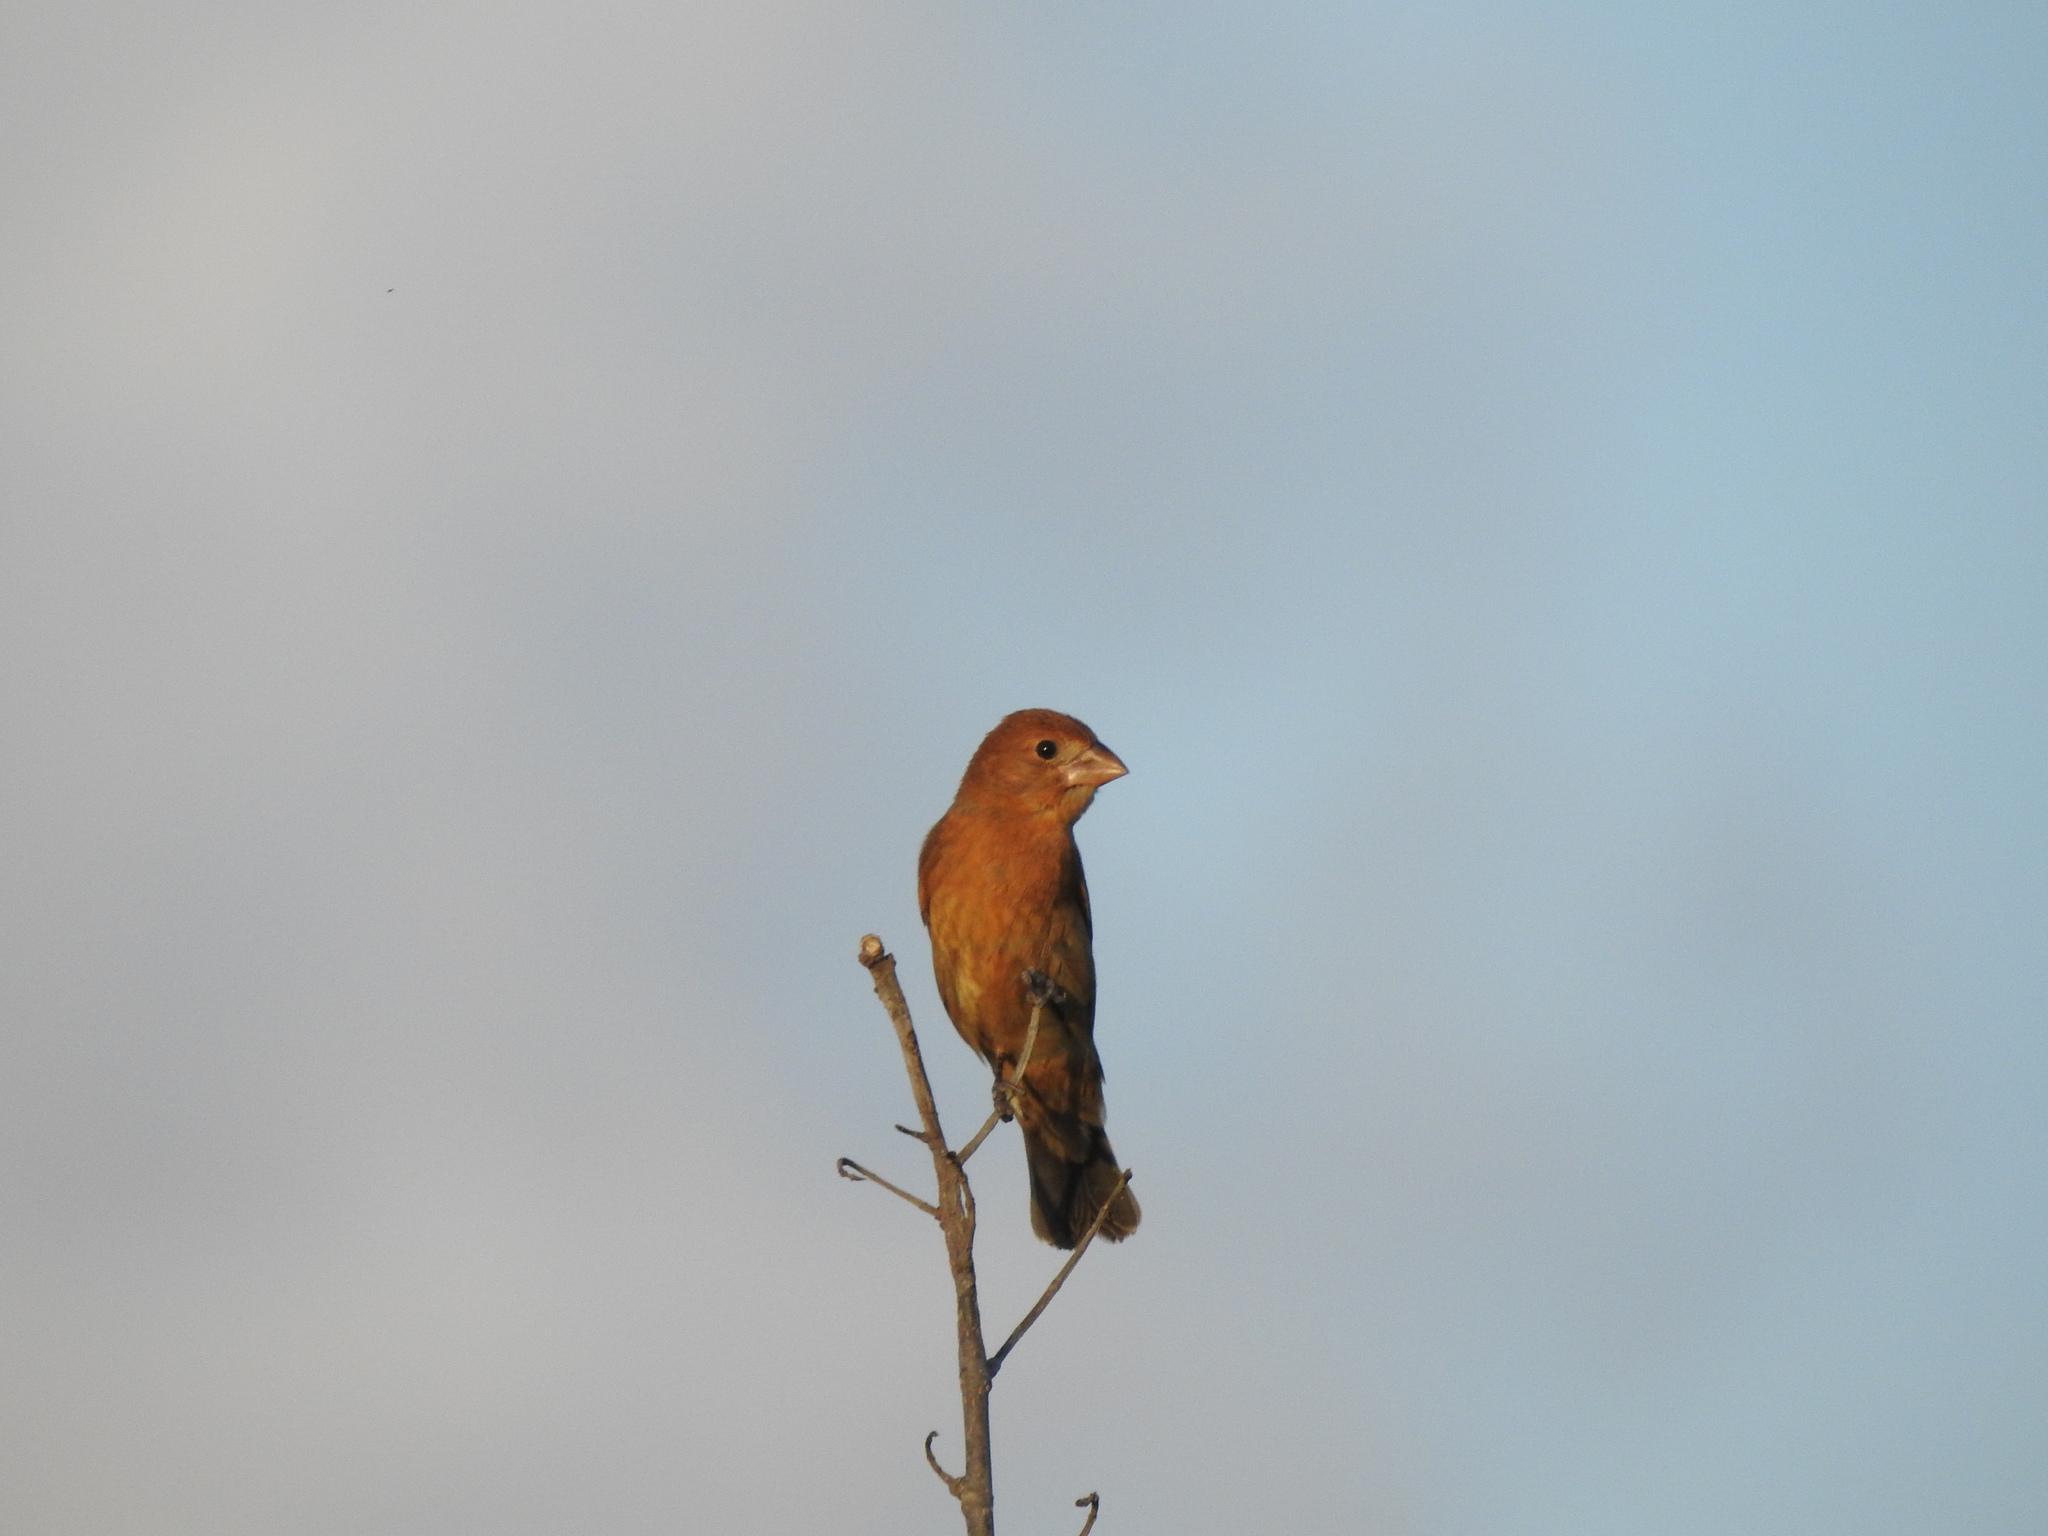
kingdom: Animalia
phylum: Chordata
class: Aves
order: Passeriformes
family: Cardinalidae
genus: Passerina
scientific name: Passerina caerulea
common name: Blue grosbeak
